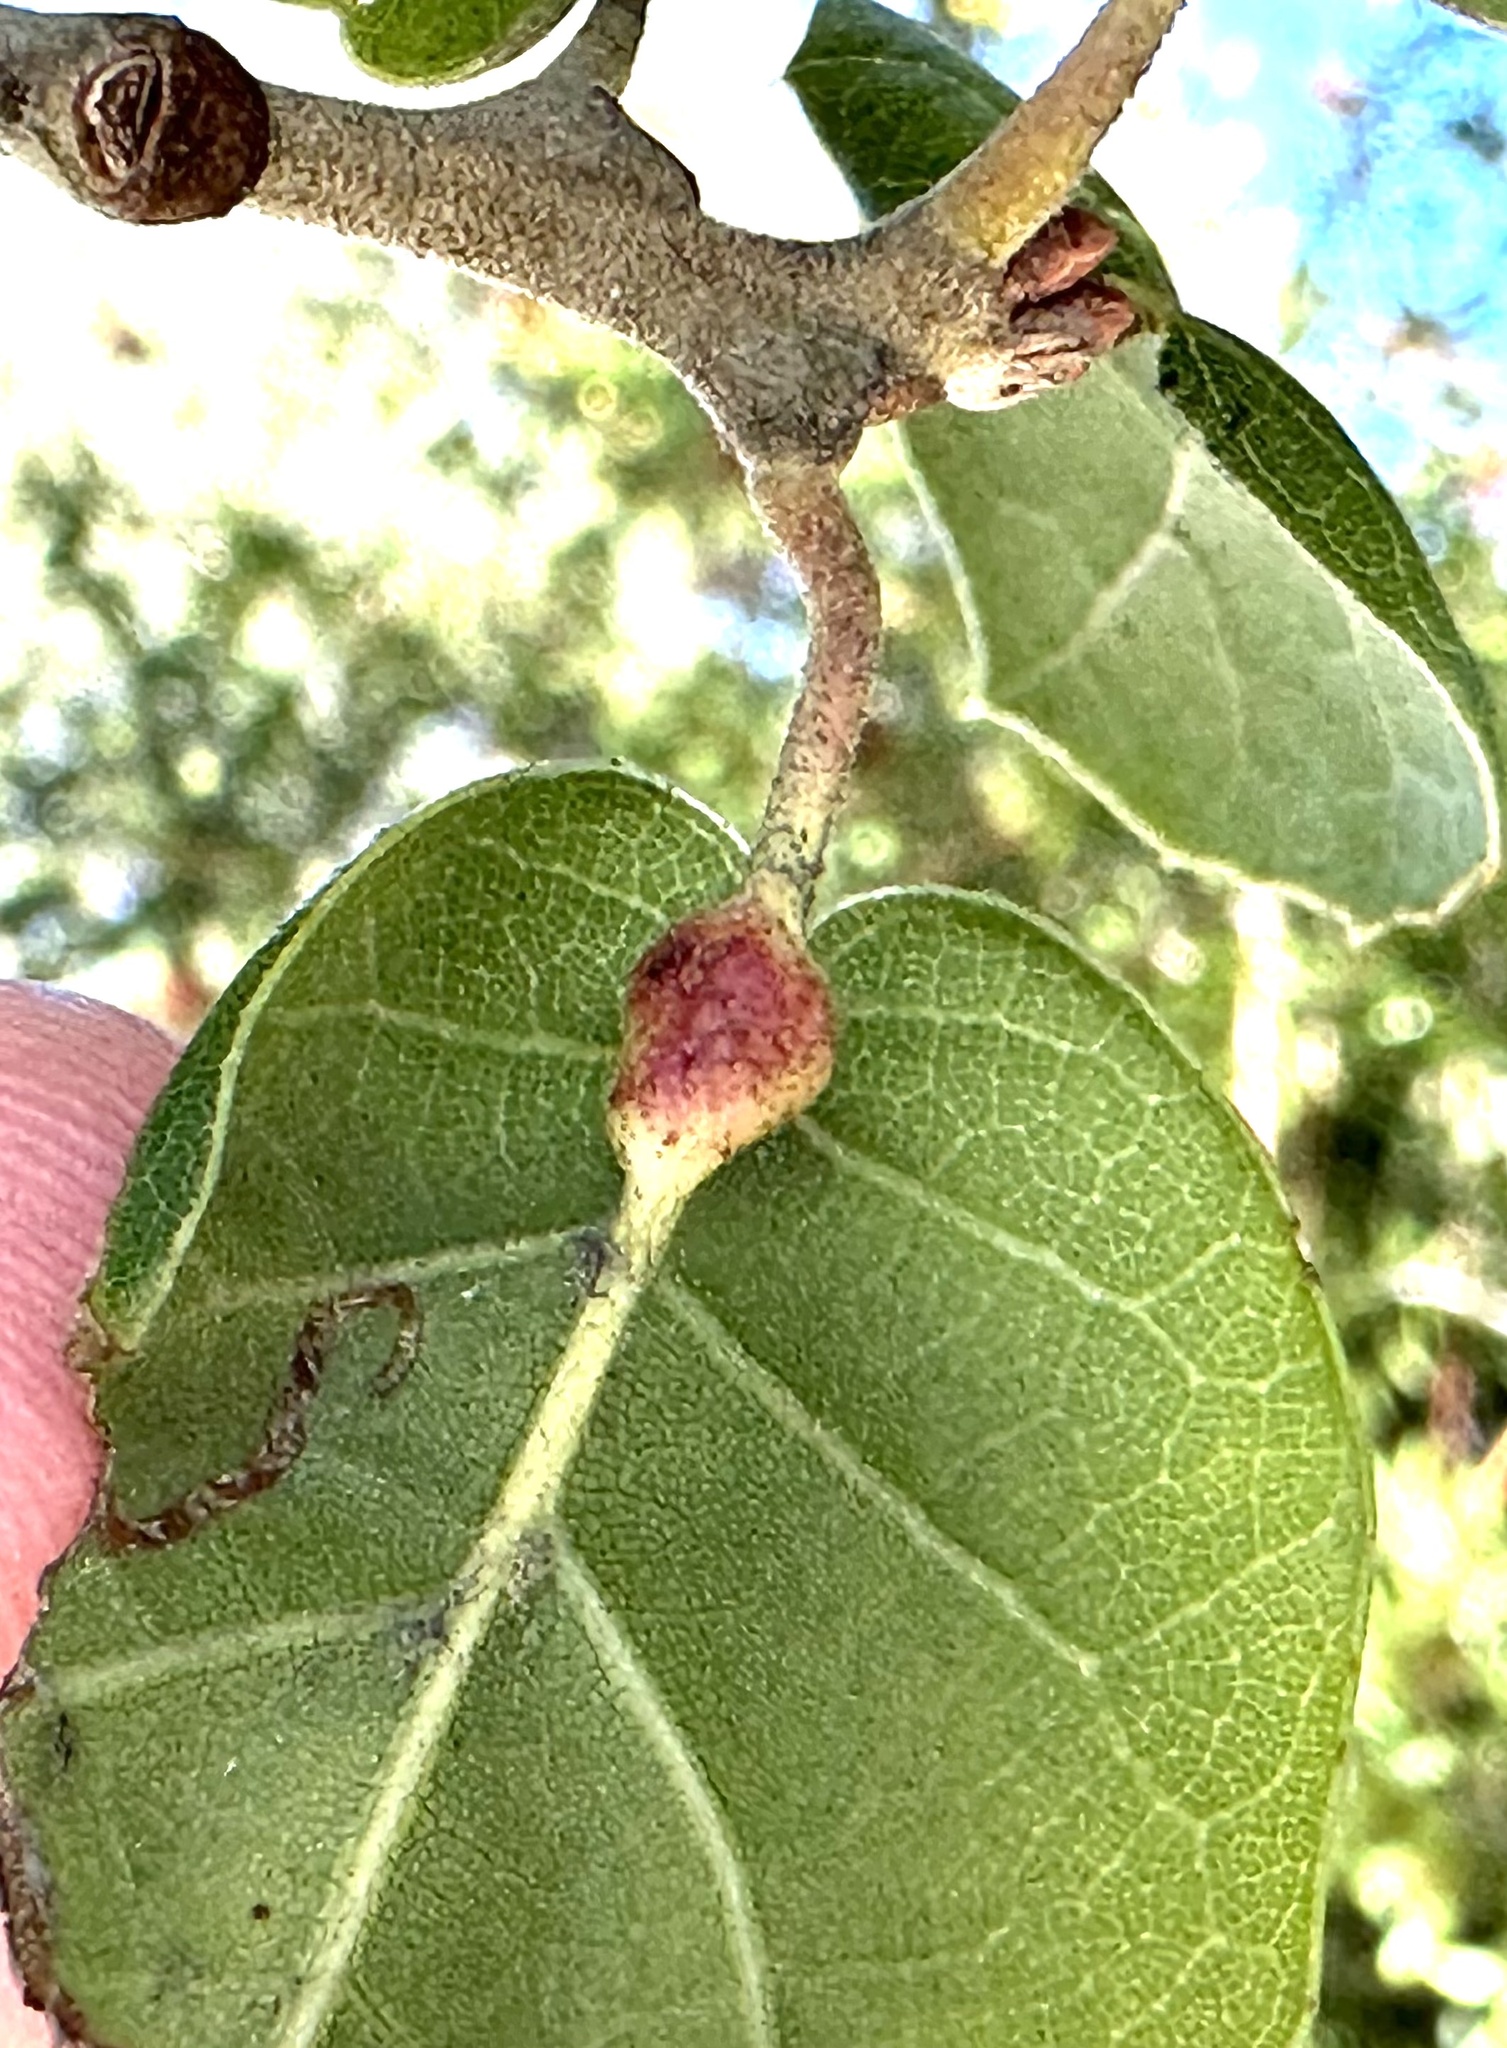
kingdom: Animalia
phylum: Arthropoda
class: Insecta
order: Hymenoptera
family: Cynipidae
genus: Melikaiella
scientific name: Melikaiella
